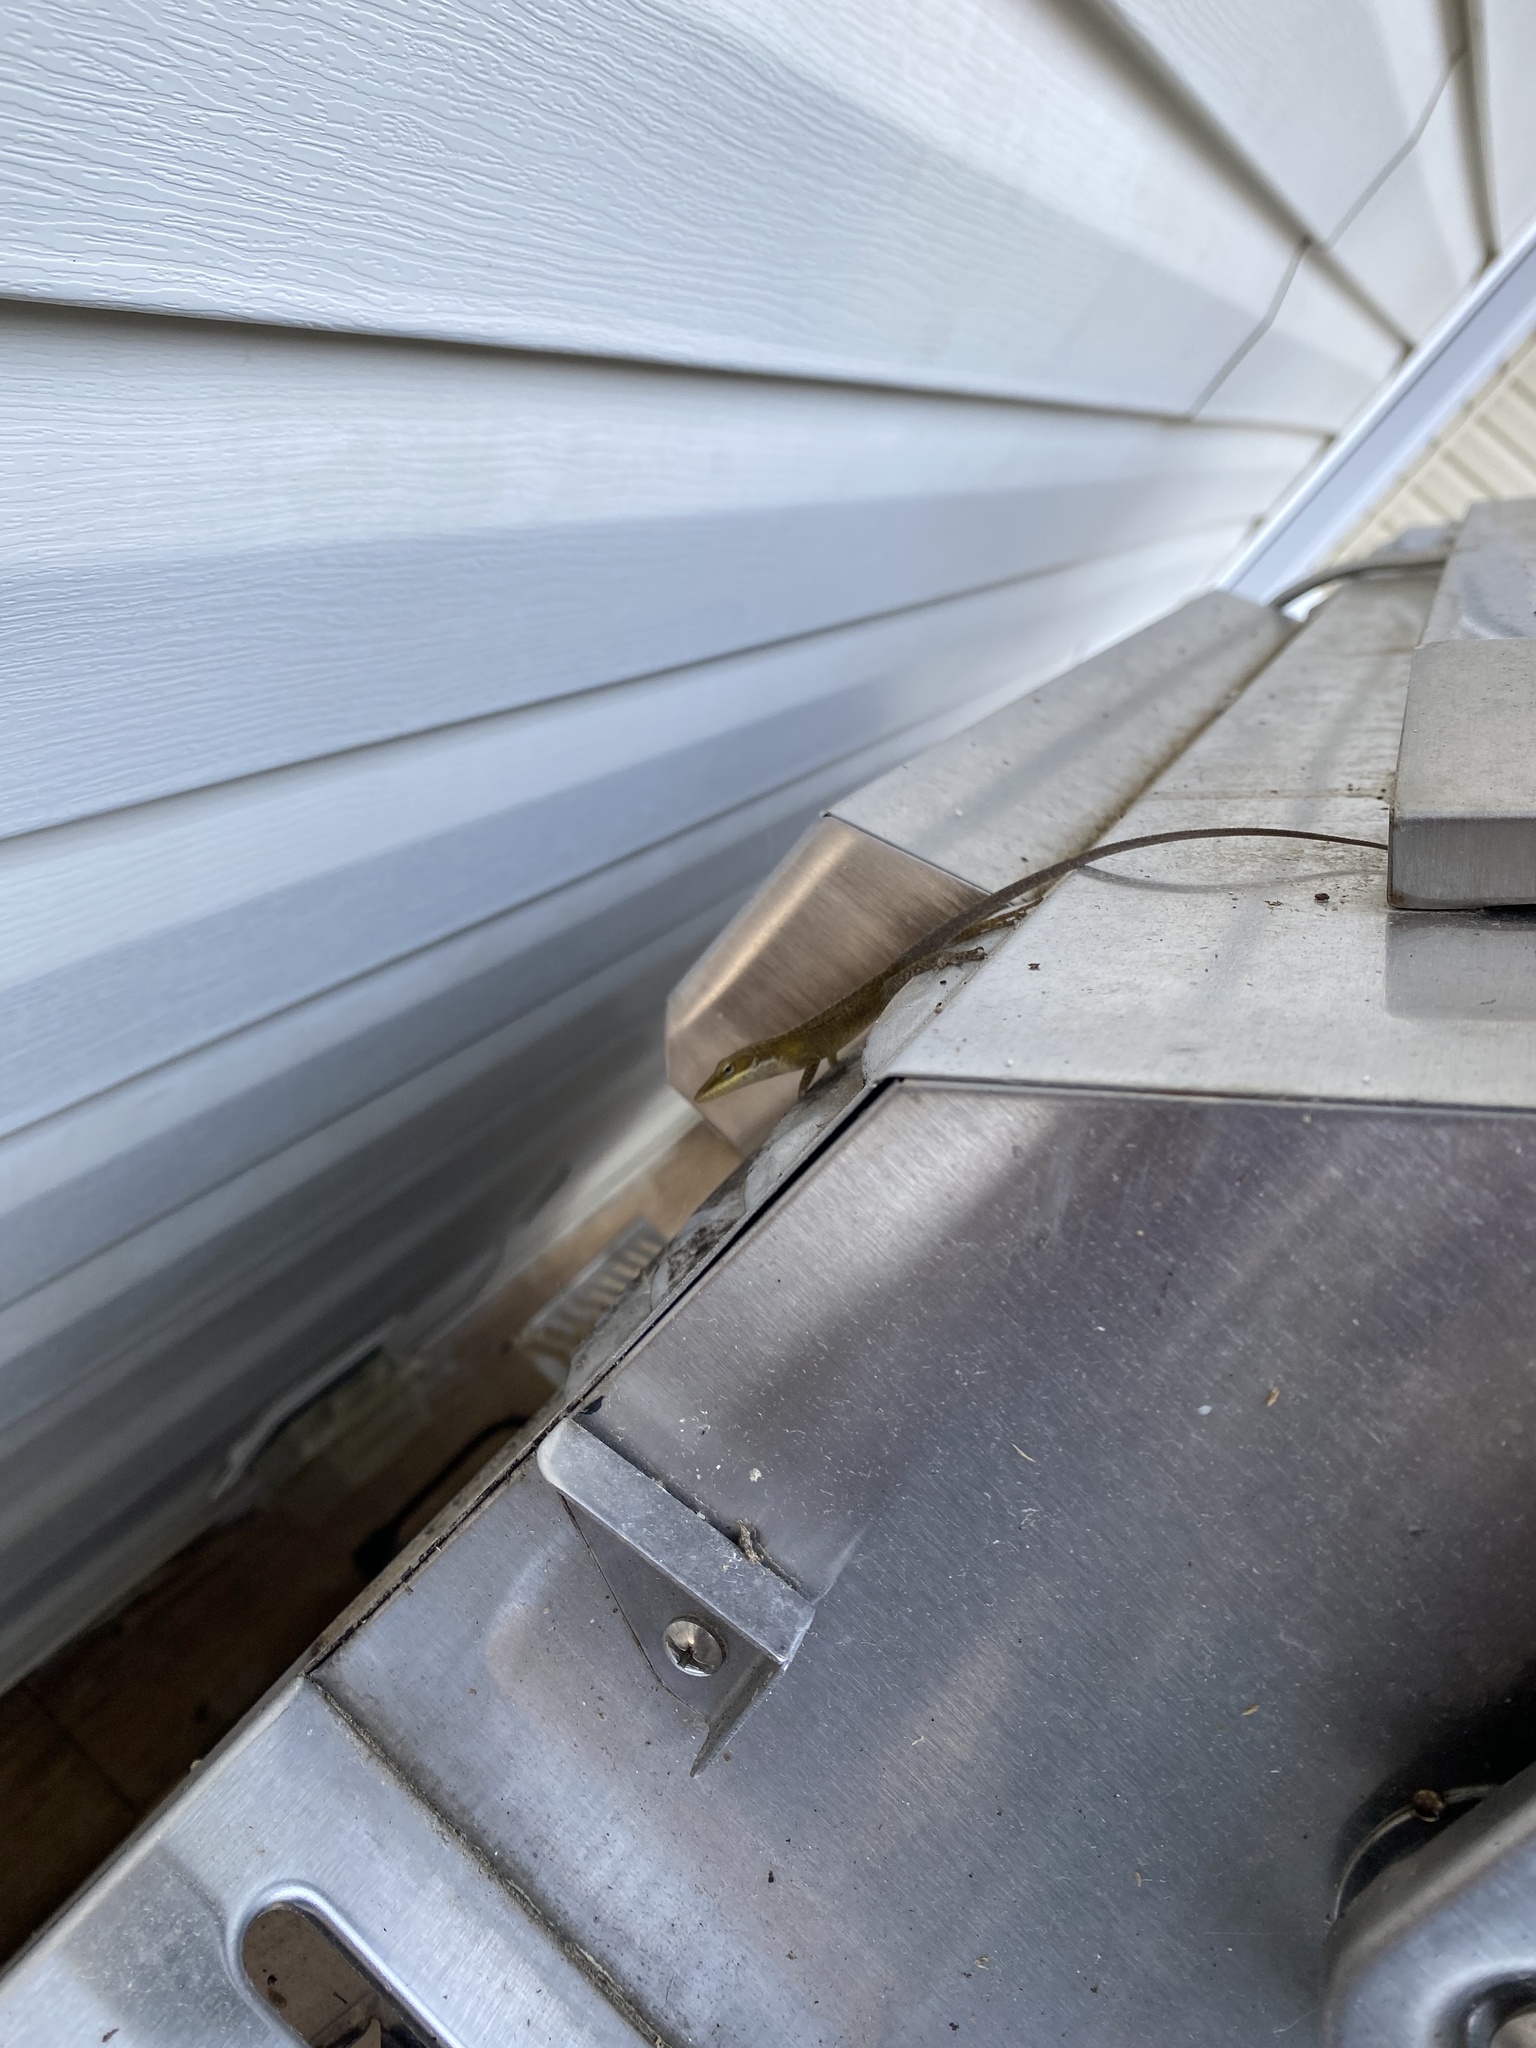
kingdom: Animalia
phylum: Chordata
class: Squamata
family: Dactyloidae
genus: Anolis
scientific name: Anolis carolinensis
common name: Green anole
